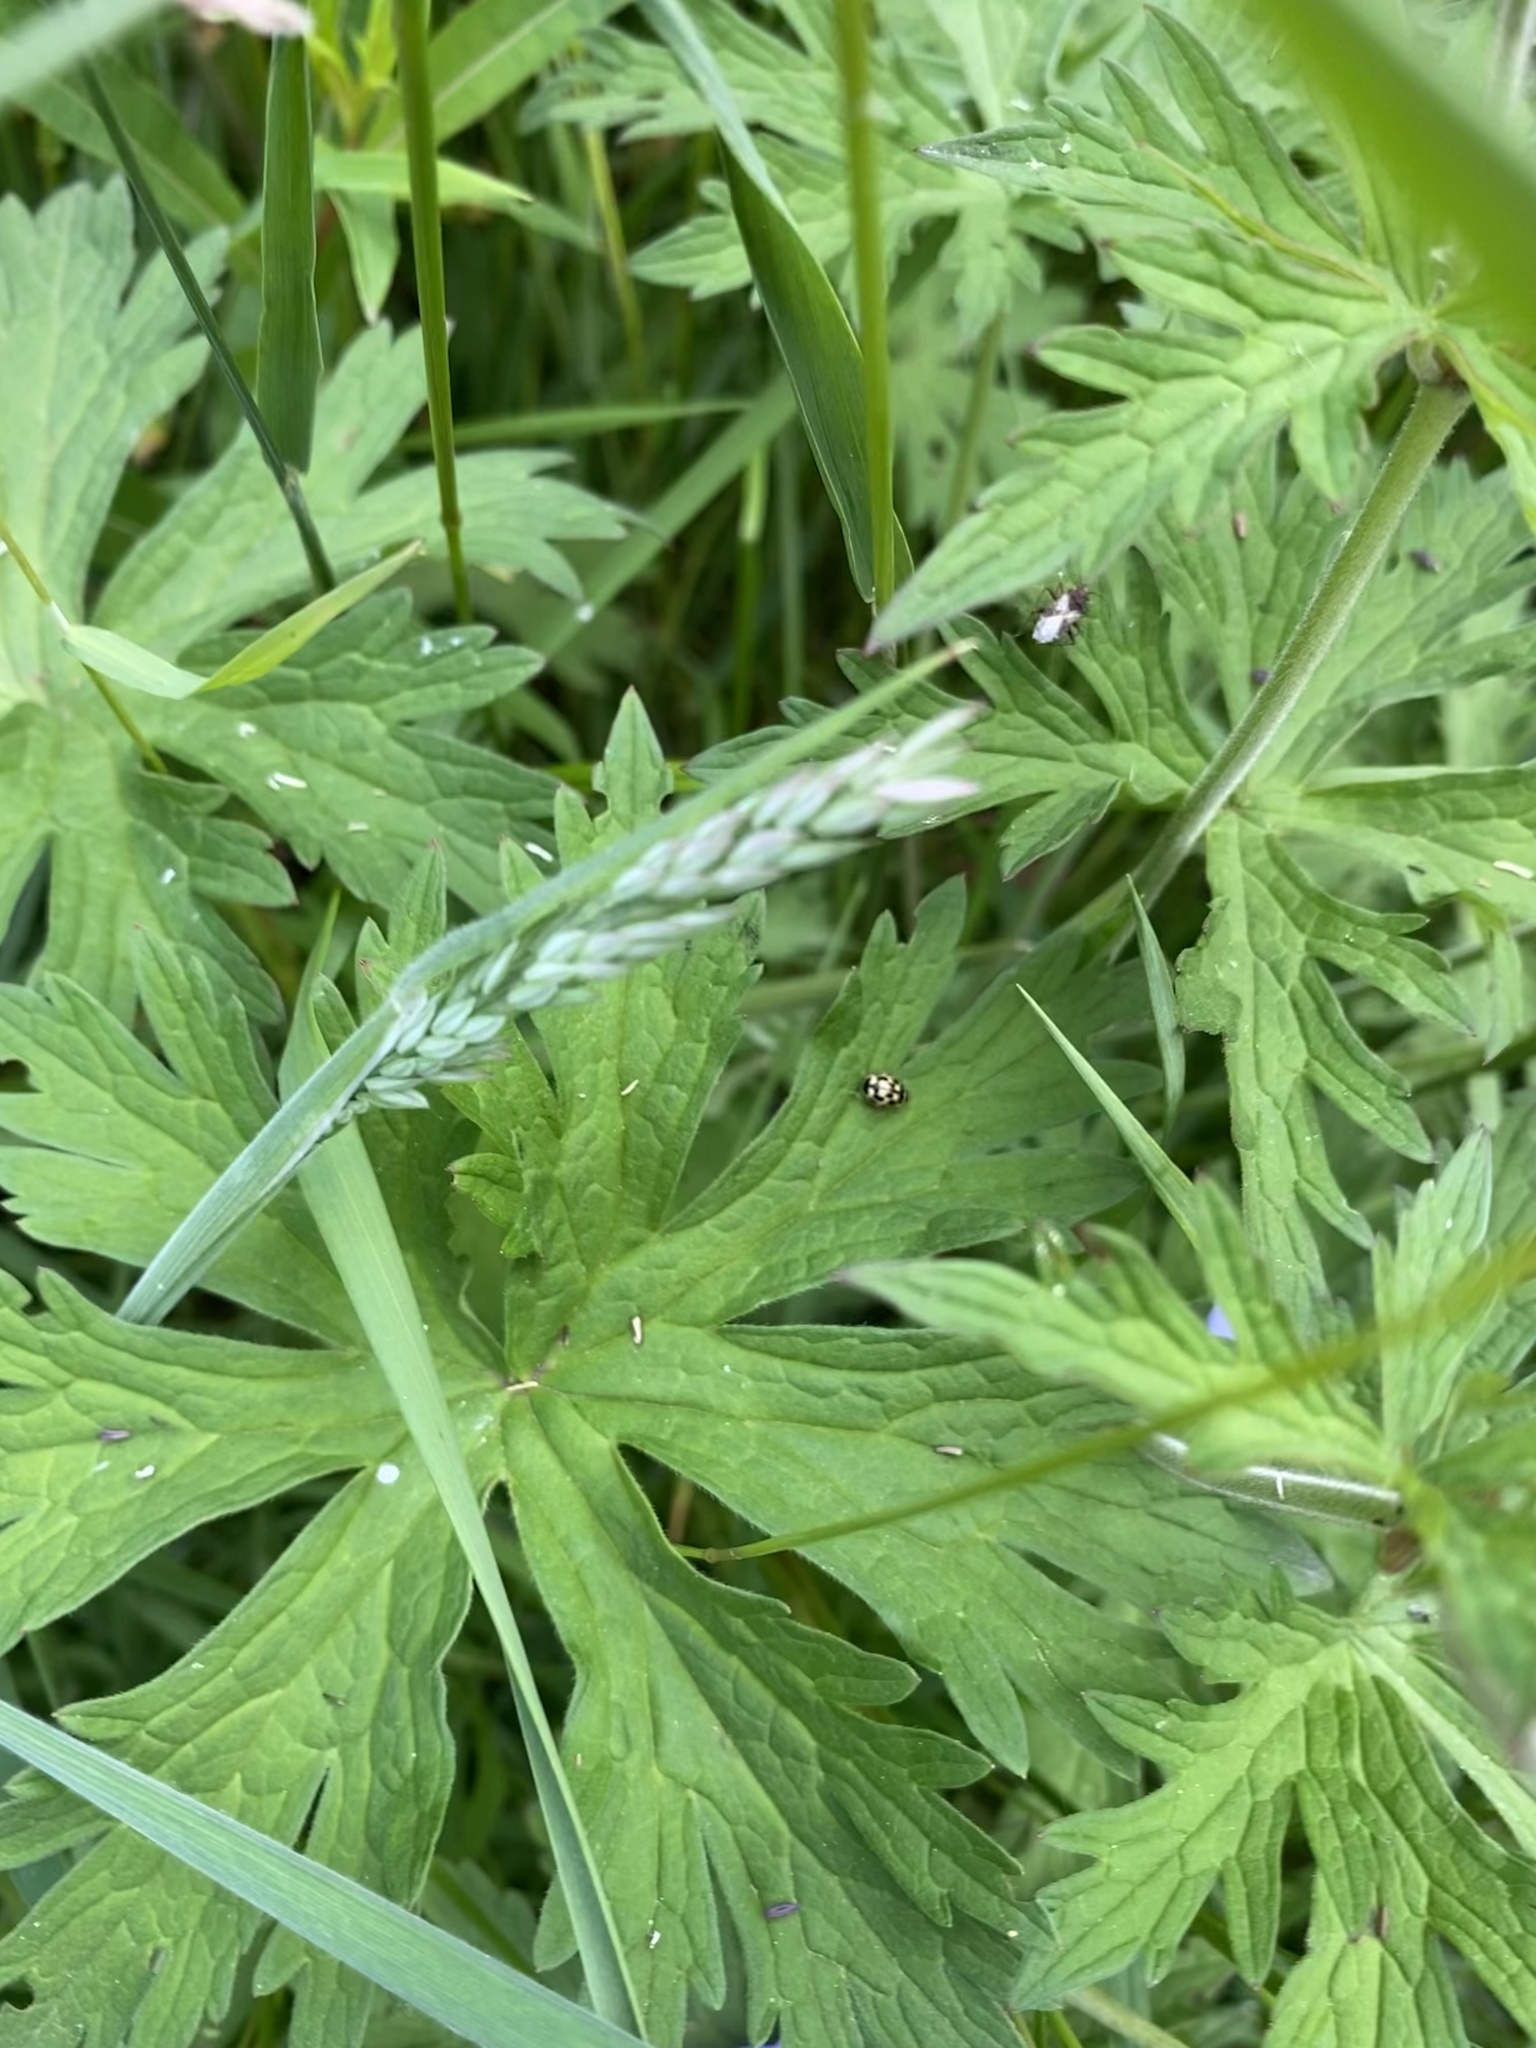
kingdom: Animalia
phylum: Arthropoda
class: Insecta
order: Coleoptera
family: Coccinellidae
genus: Propylaea
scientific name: Propylaea quatuordecimpunctata
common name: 14-spotted ladybird beetle
